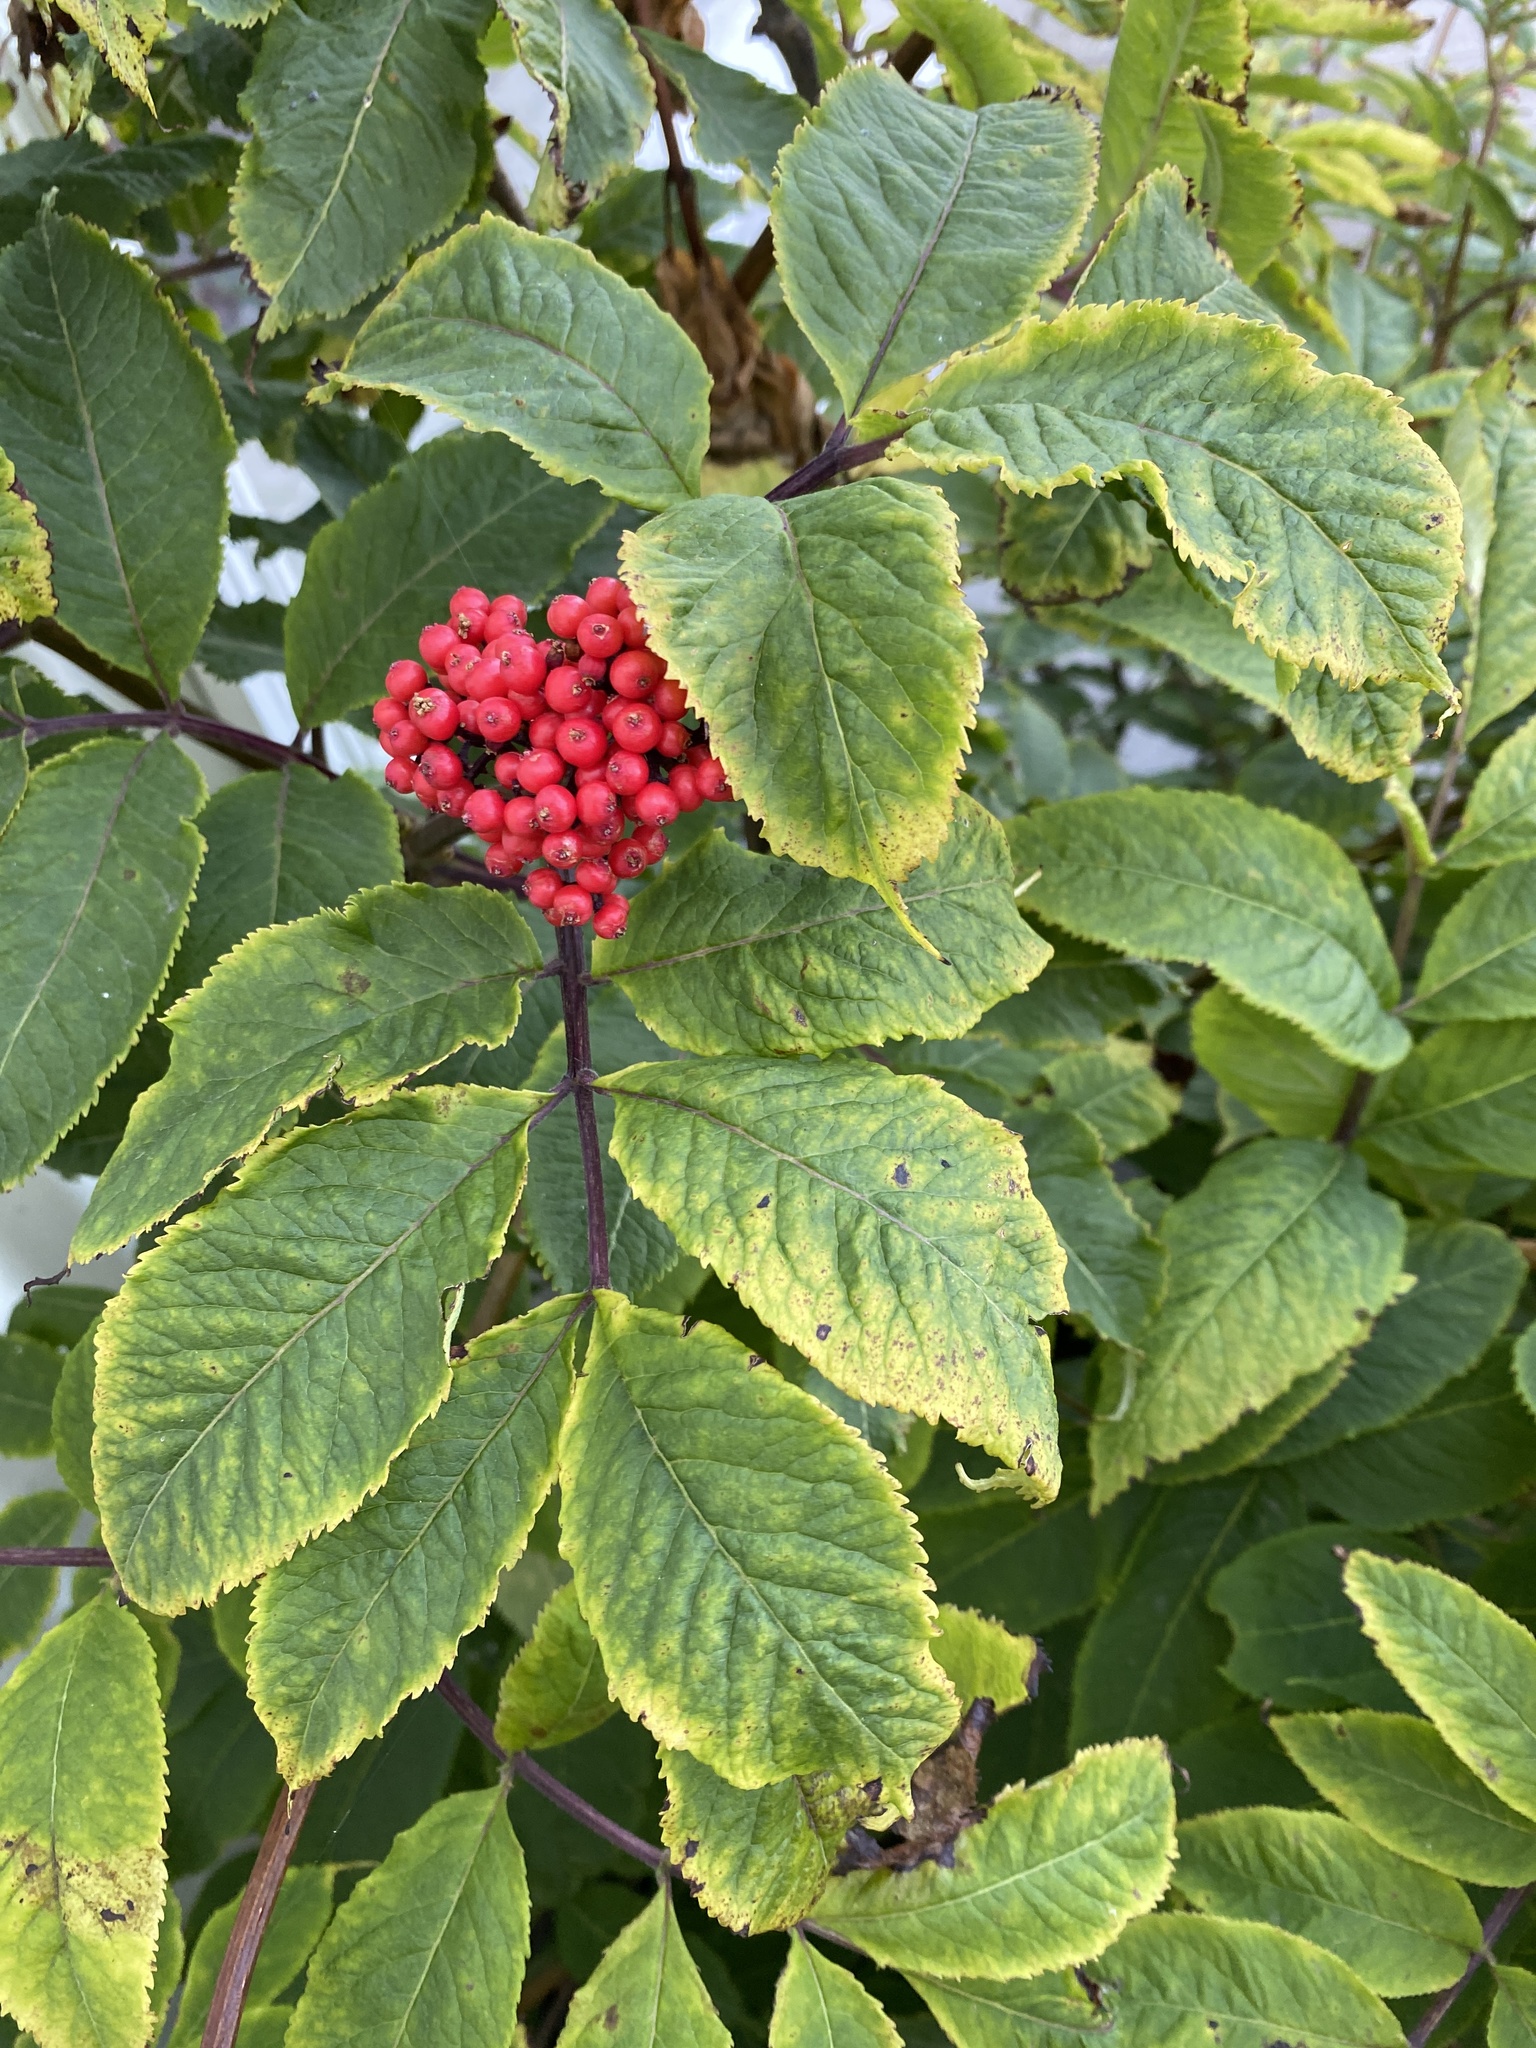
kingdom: Plantae
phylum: Tracheophyta
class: Magnoliopsida
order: Dipsacales
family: Viburnaceae
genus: Sambucus
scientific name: Sambucus racemosa
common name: Red-berried elder
